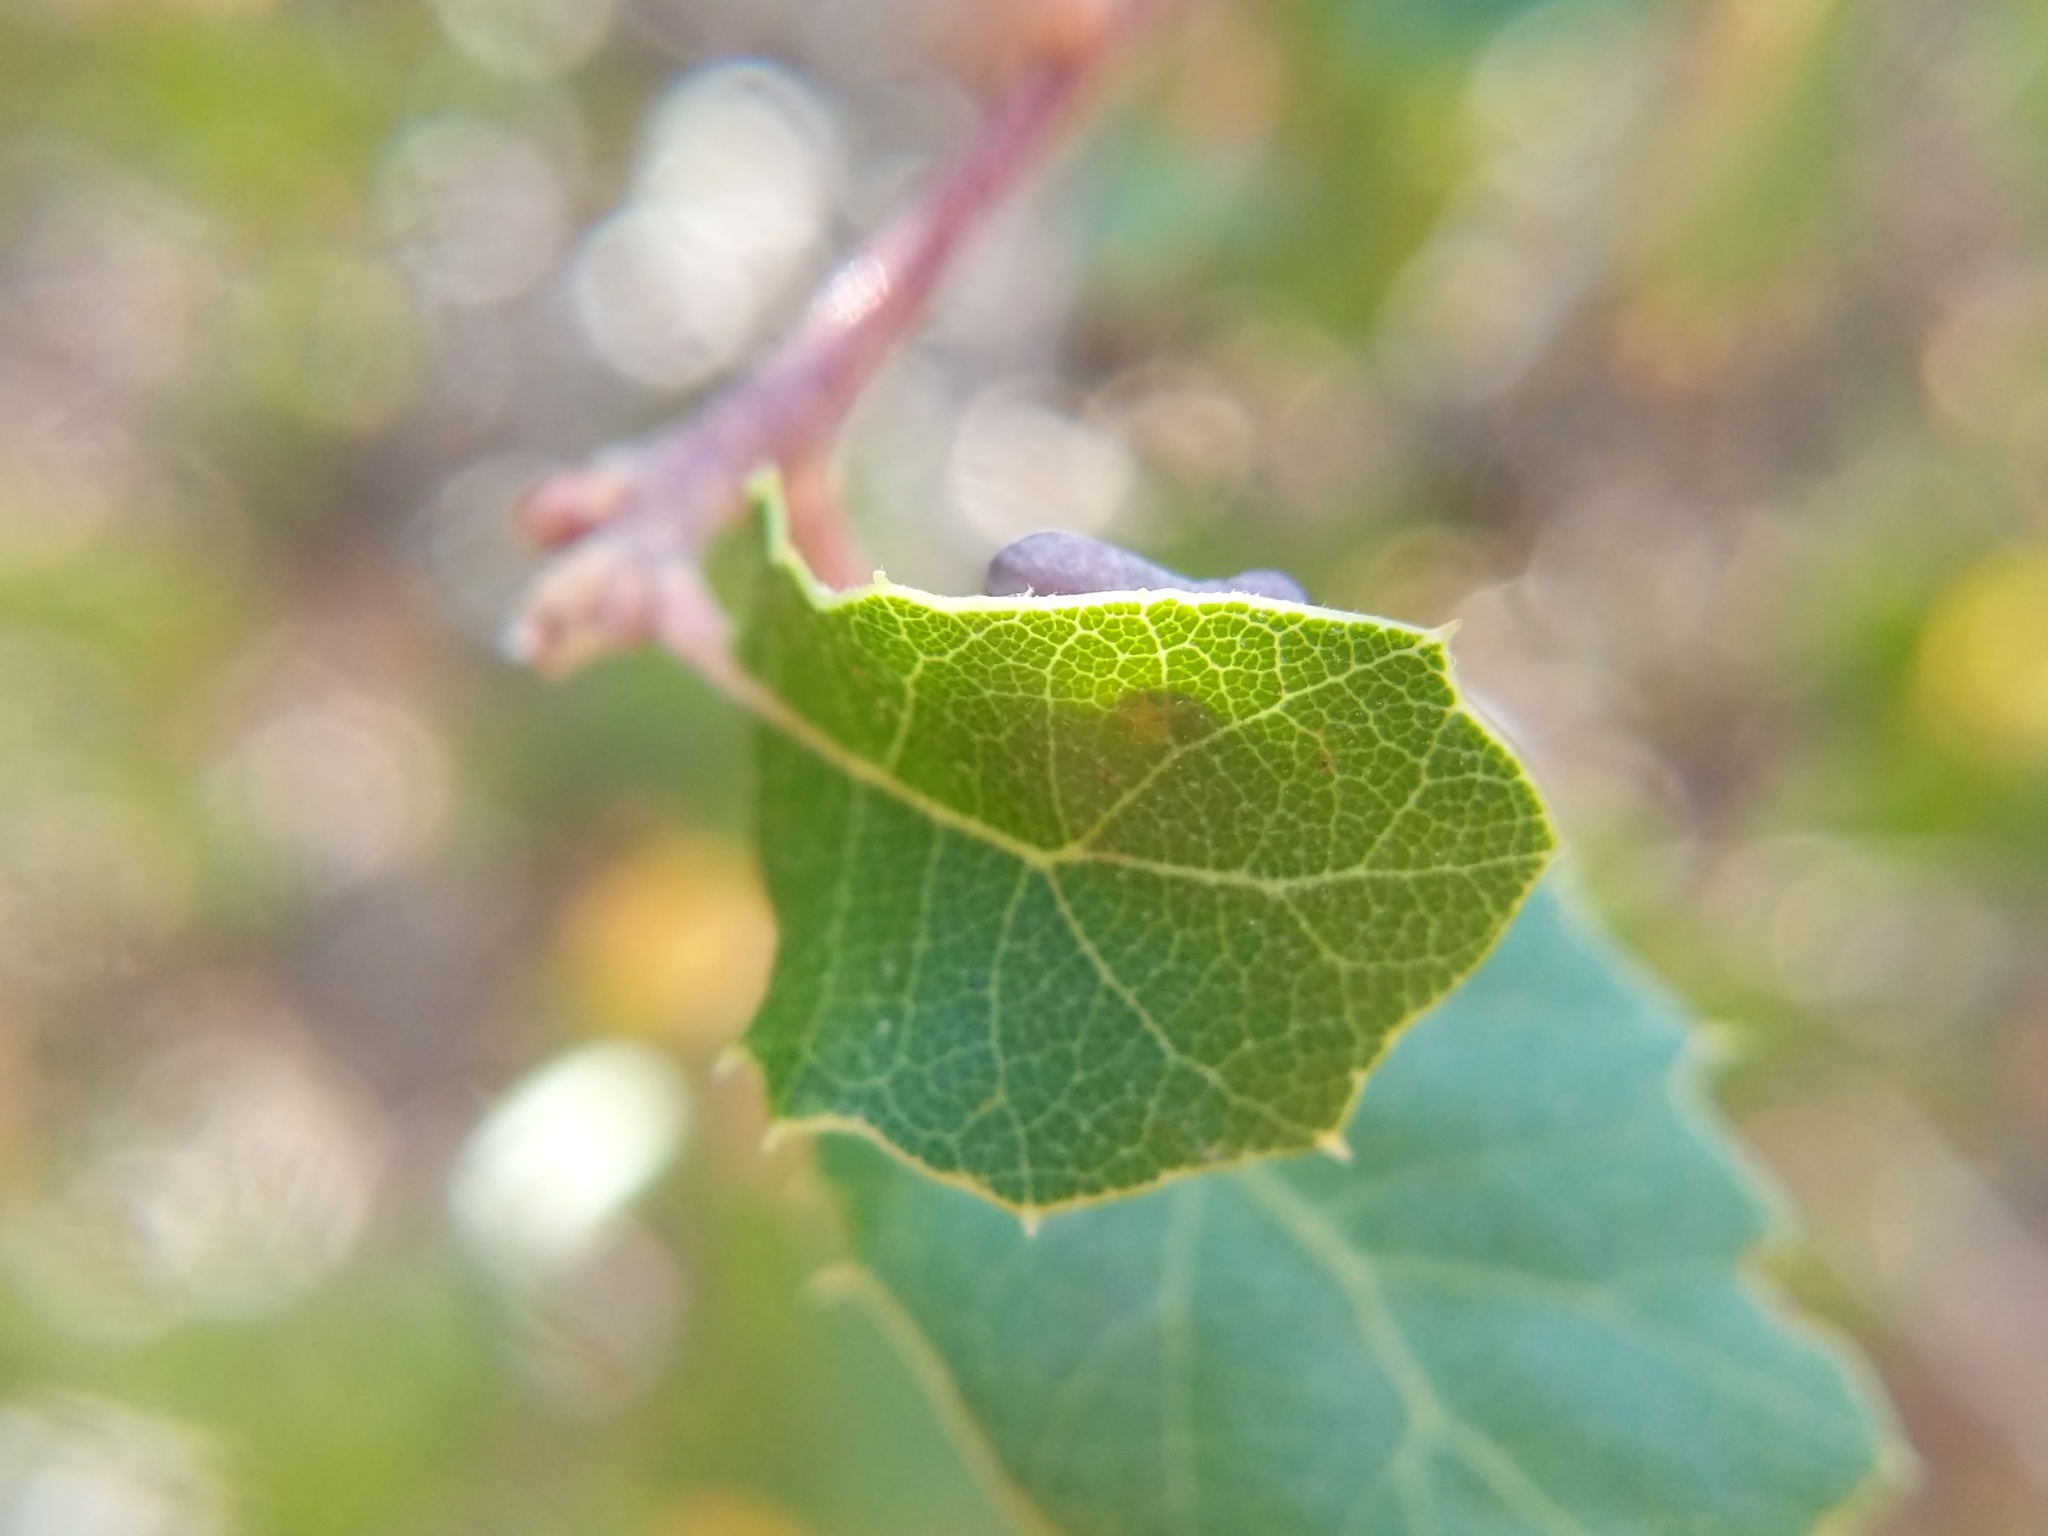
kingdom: Animalia
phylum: Arthropoda
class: Insecta
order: Hymenoptera
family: Cynipidae
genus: Andricus
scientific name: Andricus
